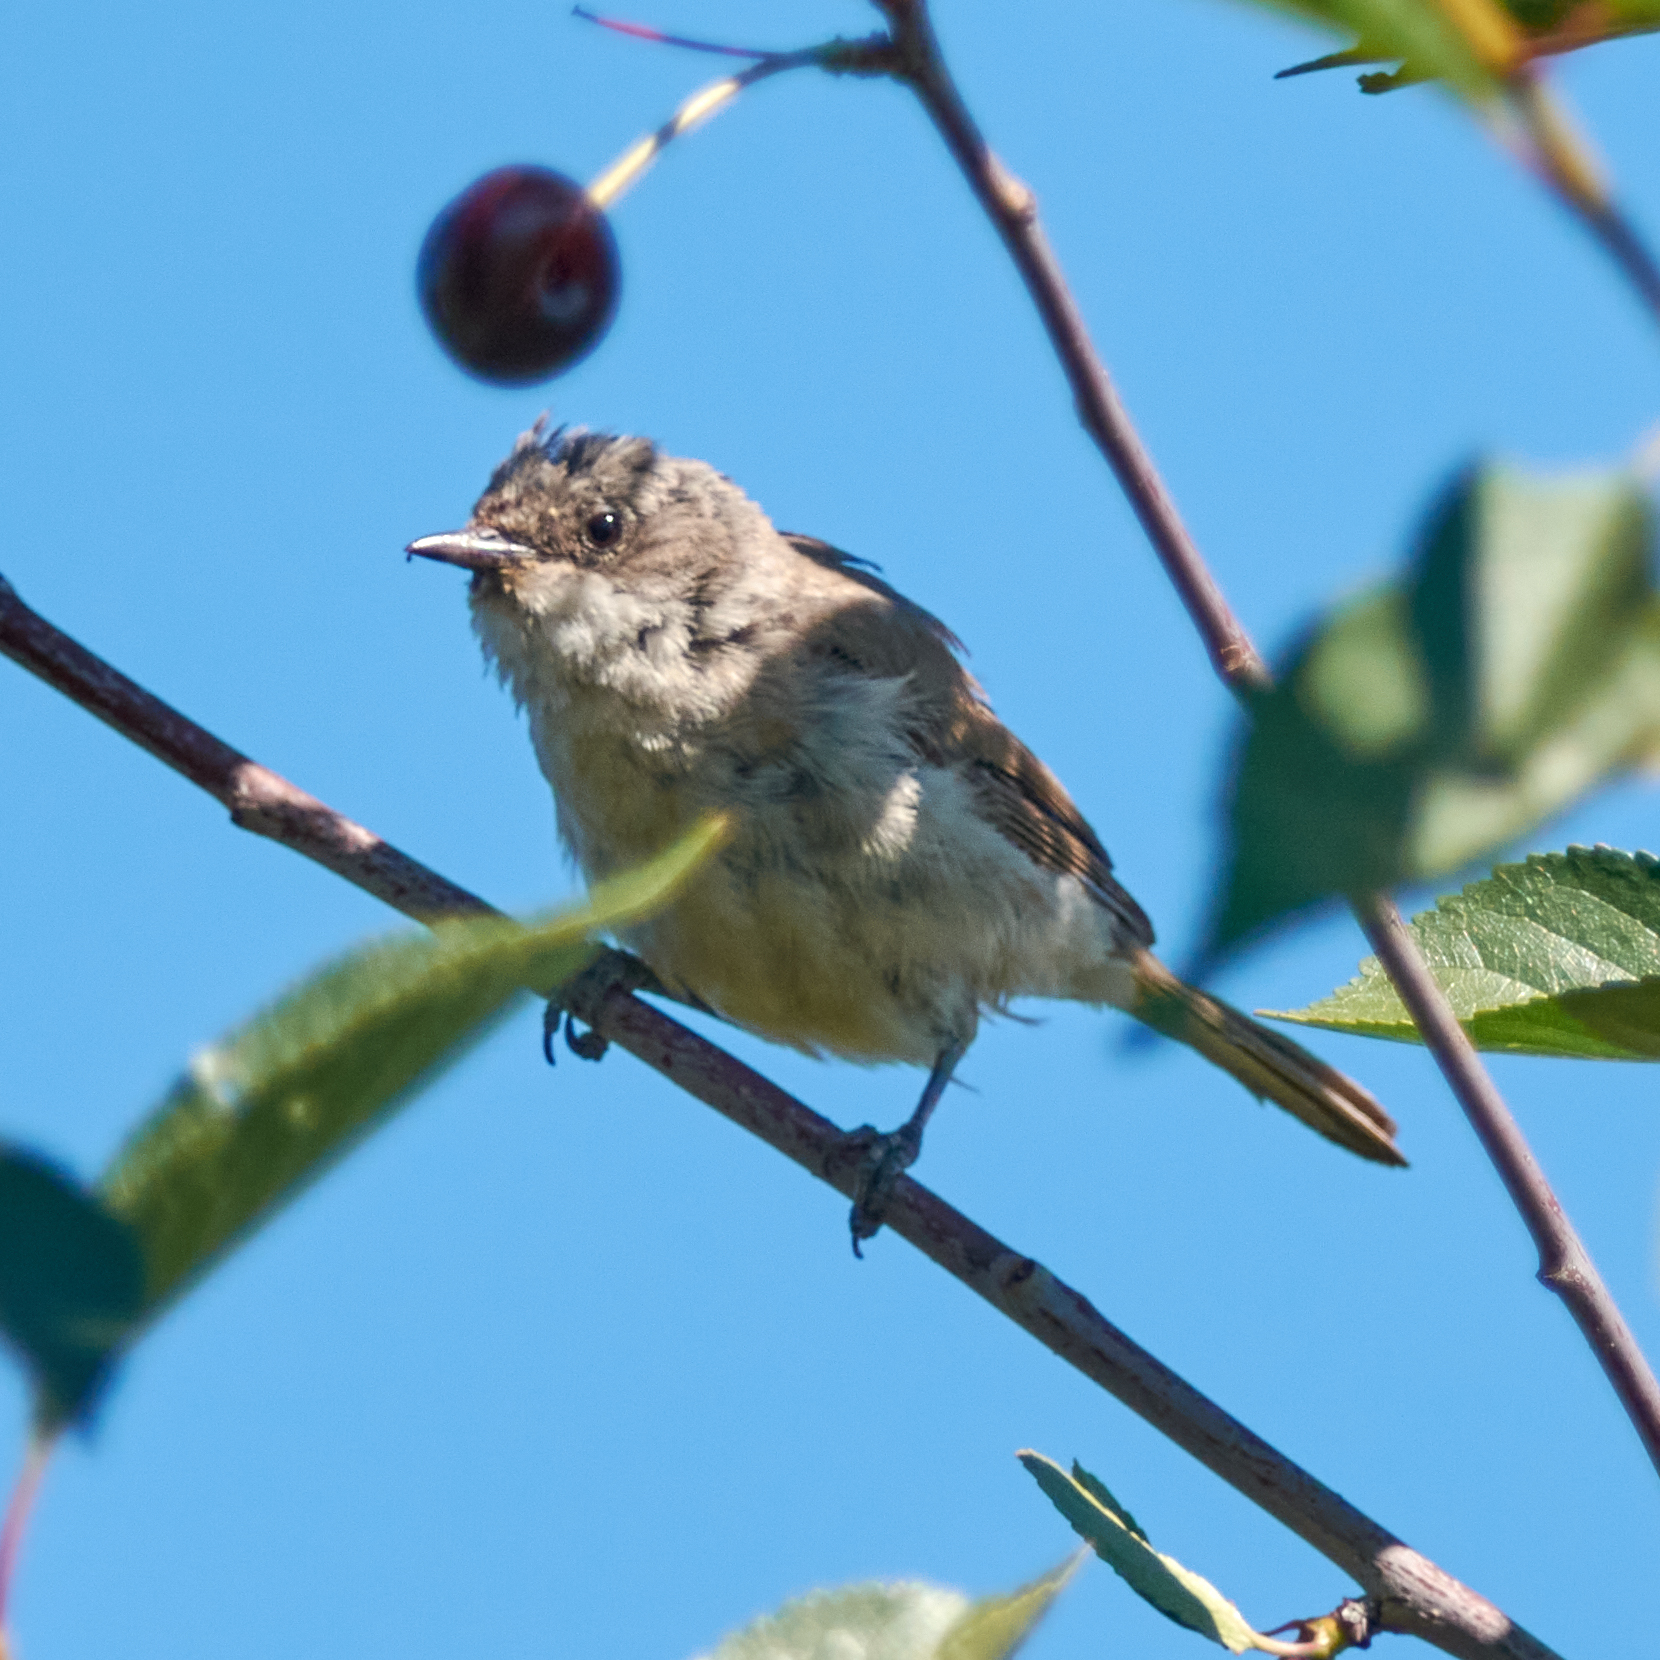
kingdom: Animalia
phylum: Chordata
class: Aves
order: Passeriformes
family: Sylviidae
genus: Sylvia
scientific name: Sylvia curruca
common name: Lesser whitethroat
